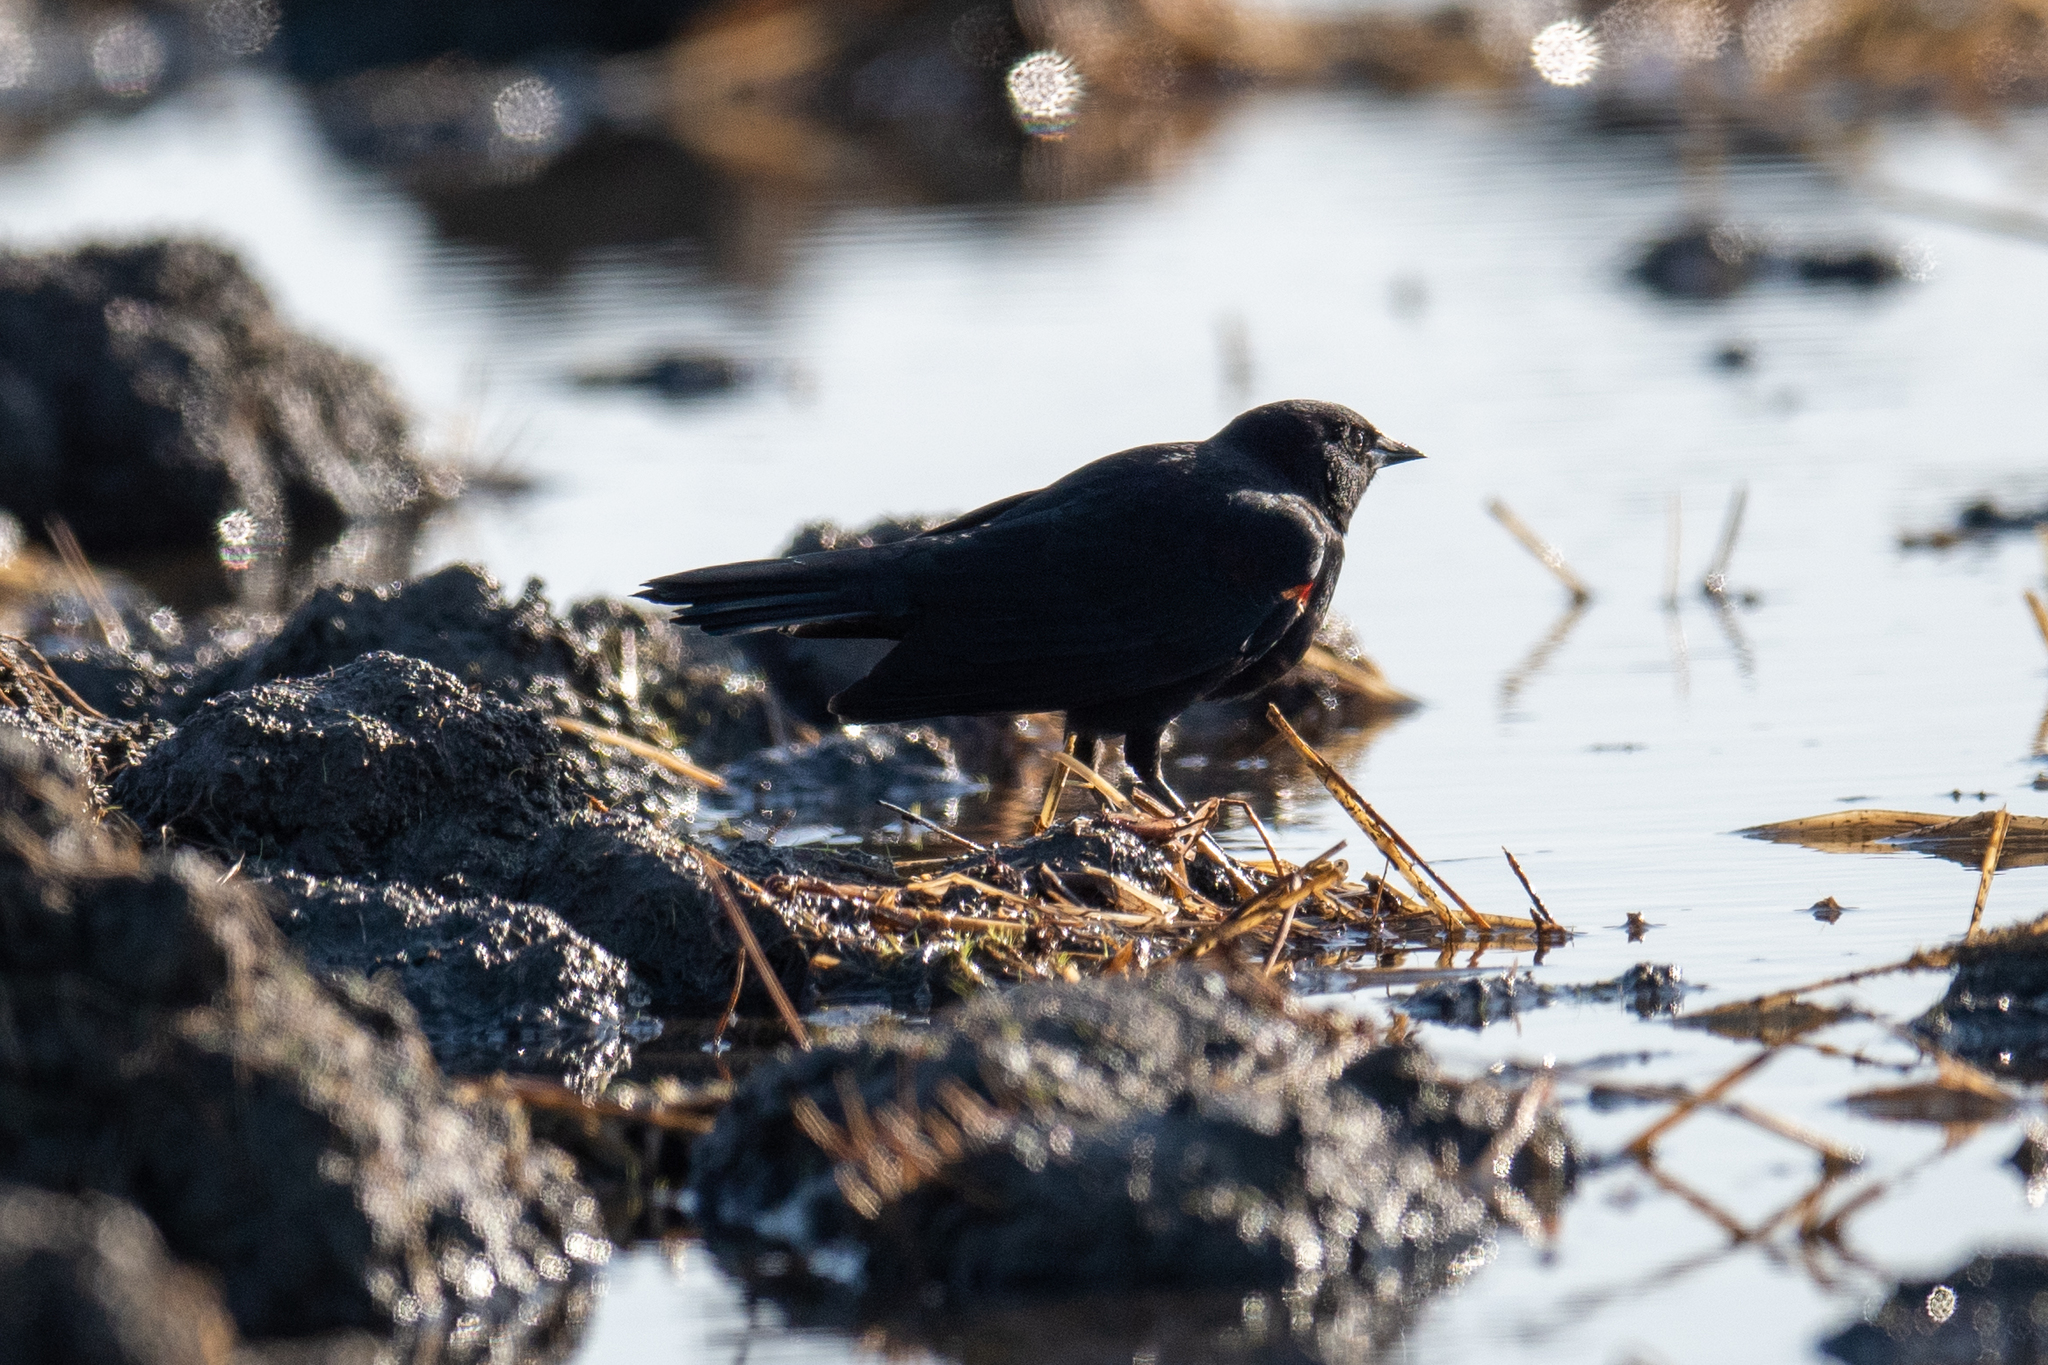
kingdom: Animalia
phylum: Chordata
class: Aves
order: Passeriformes
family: Icteridae
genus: Agelaius
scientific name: Agelaius phoeniceus
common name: Red-winged blackbird
